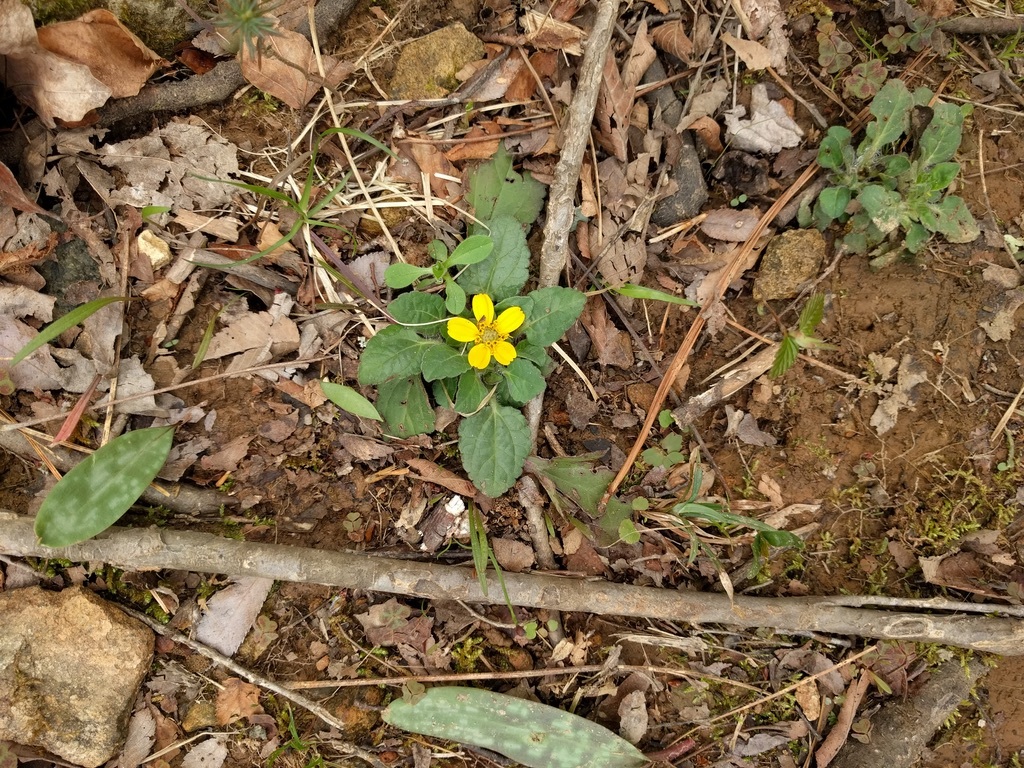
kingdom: Plantae
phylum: Tracheophyta
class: Magnoliopsida
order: Asterales
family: Asteraceae
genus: Chrysogonum
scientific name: Chrysogonum virginianum
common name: Golden-knee
